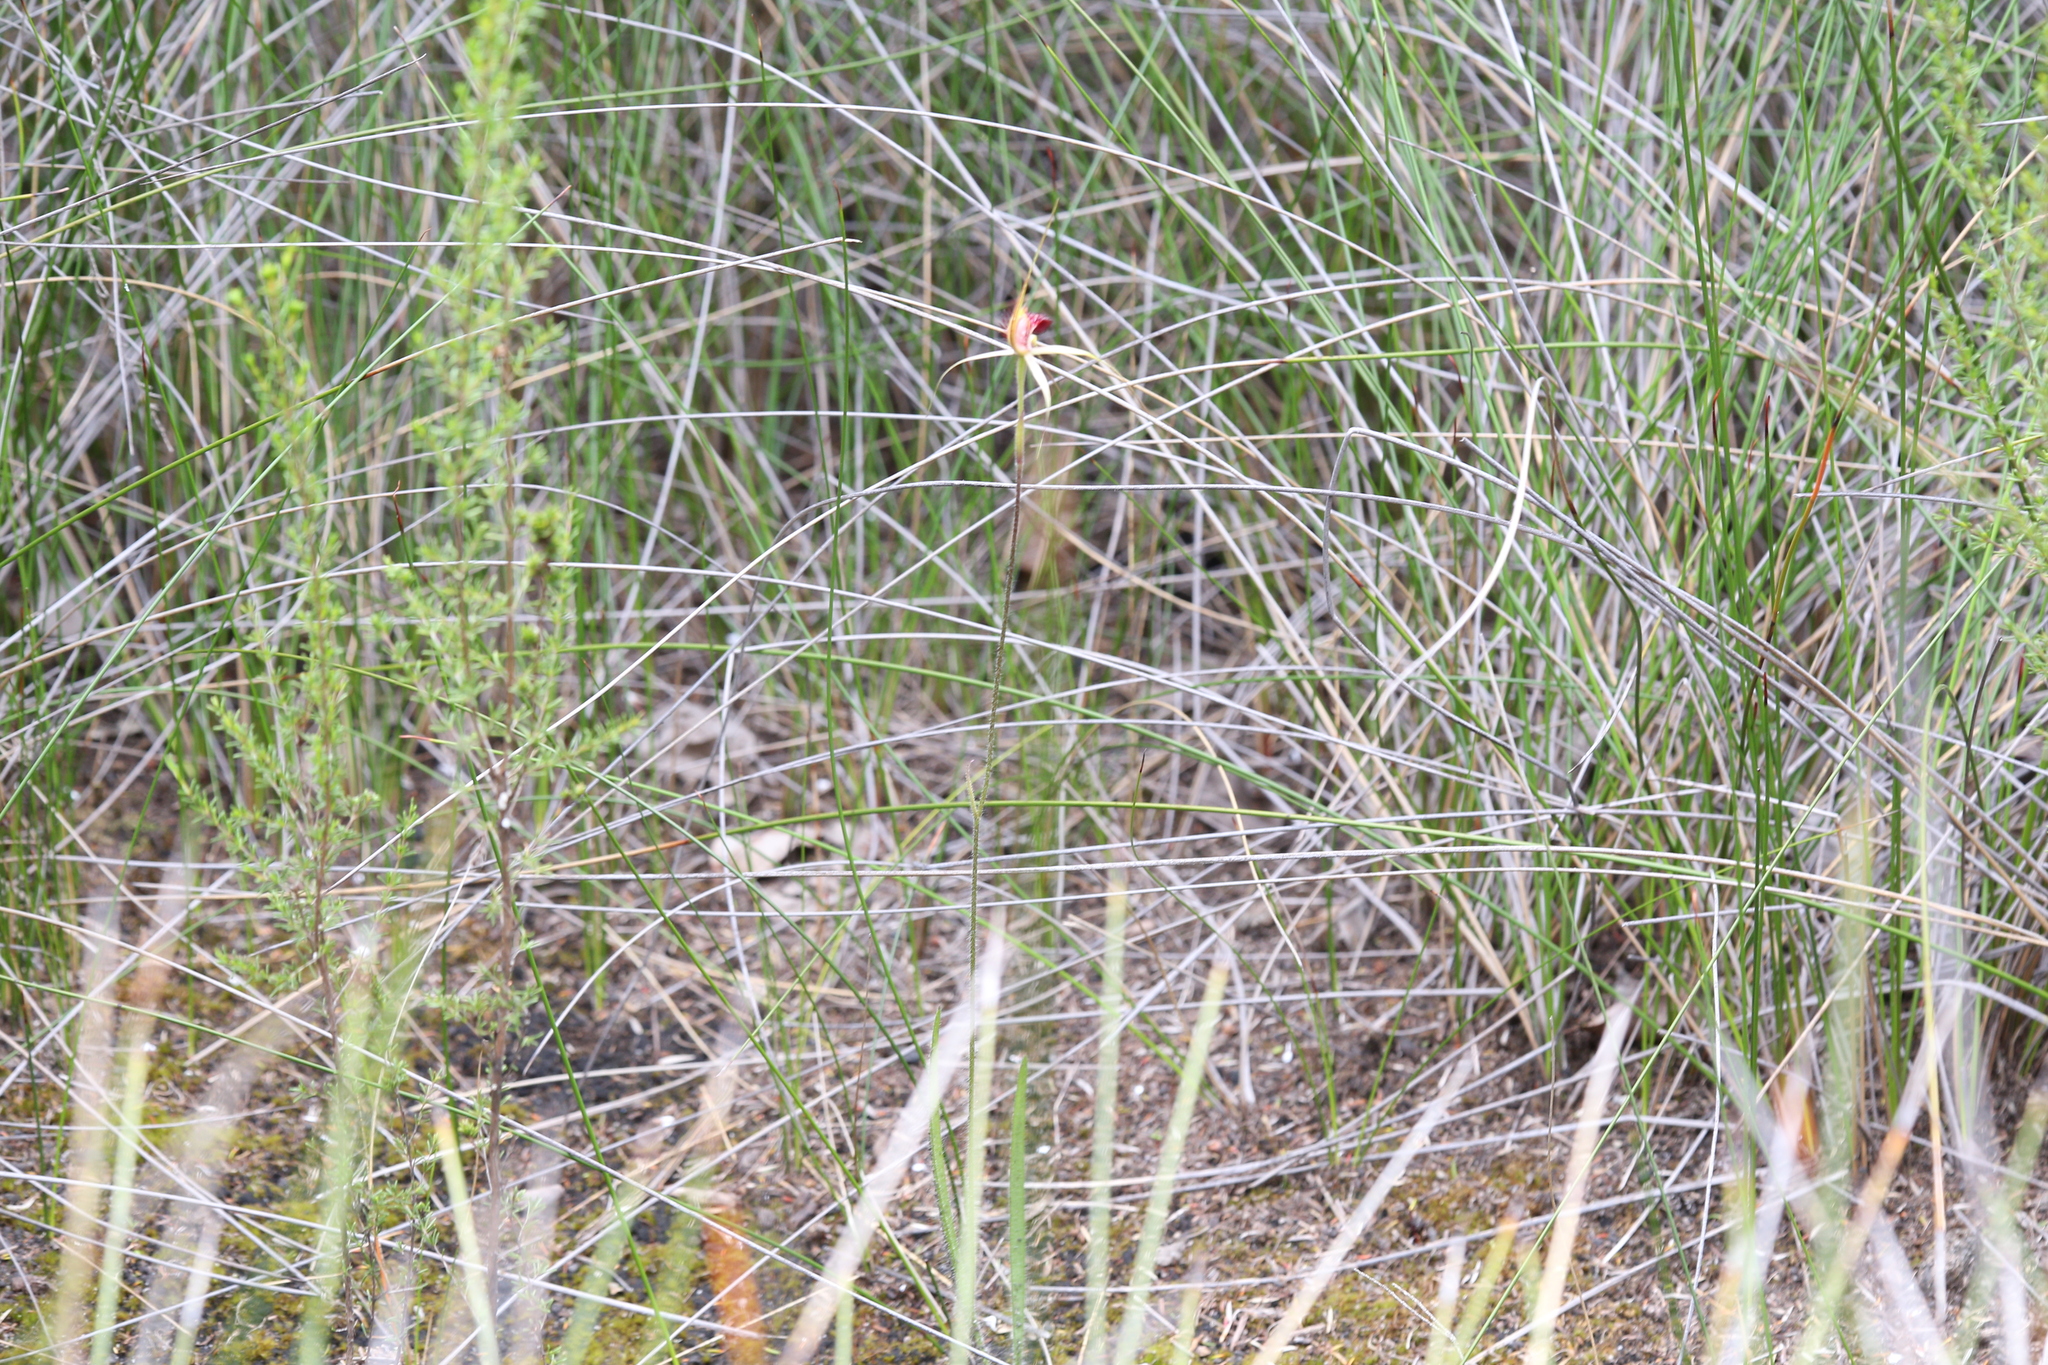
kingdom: Plantae
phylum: Tracheophyta
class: Liliopsida
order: Asparagales
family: Orchidaceae
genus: Caladenia
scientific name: Caladenia paludosa
